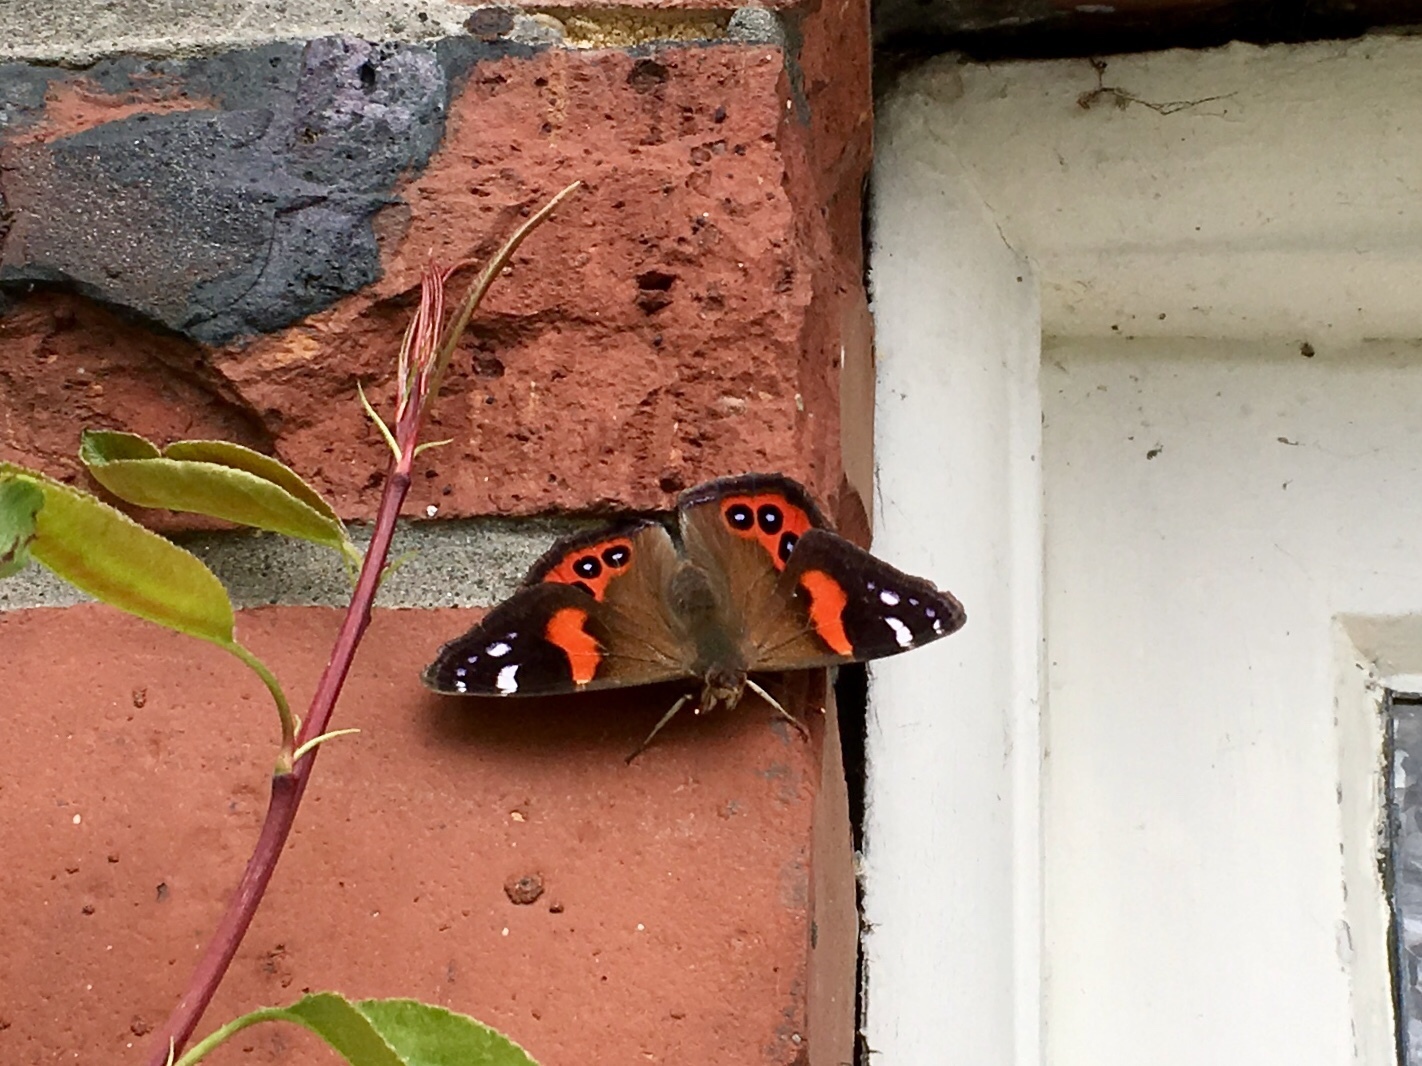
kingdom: Animalia
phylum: Arthropoda
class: Insecta
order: Lepidoptera
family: Nymphalidae
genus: Vanessa
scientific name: Vanessa gonerilla
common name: New zealand red admiral
